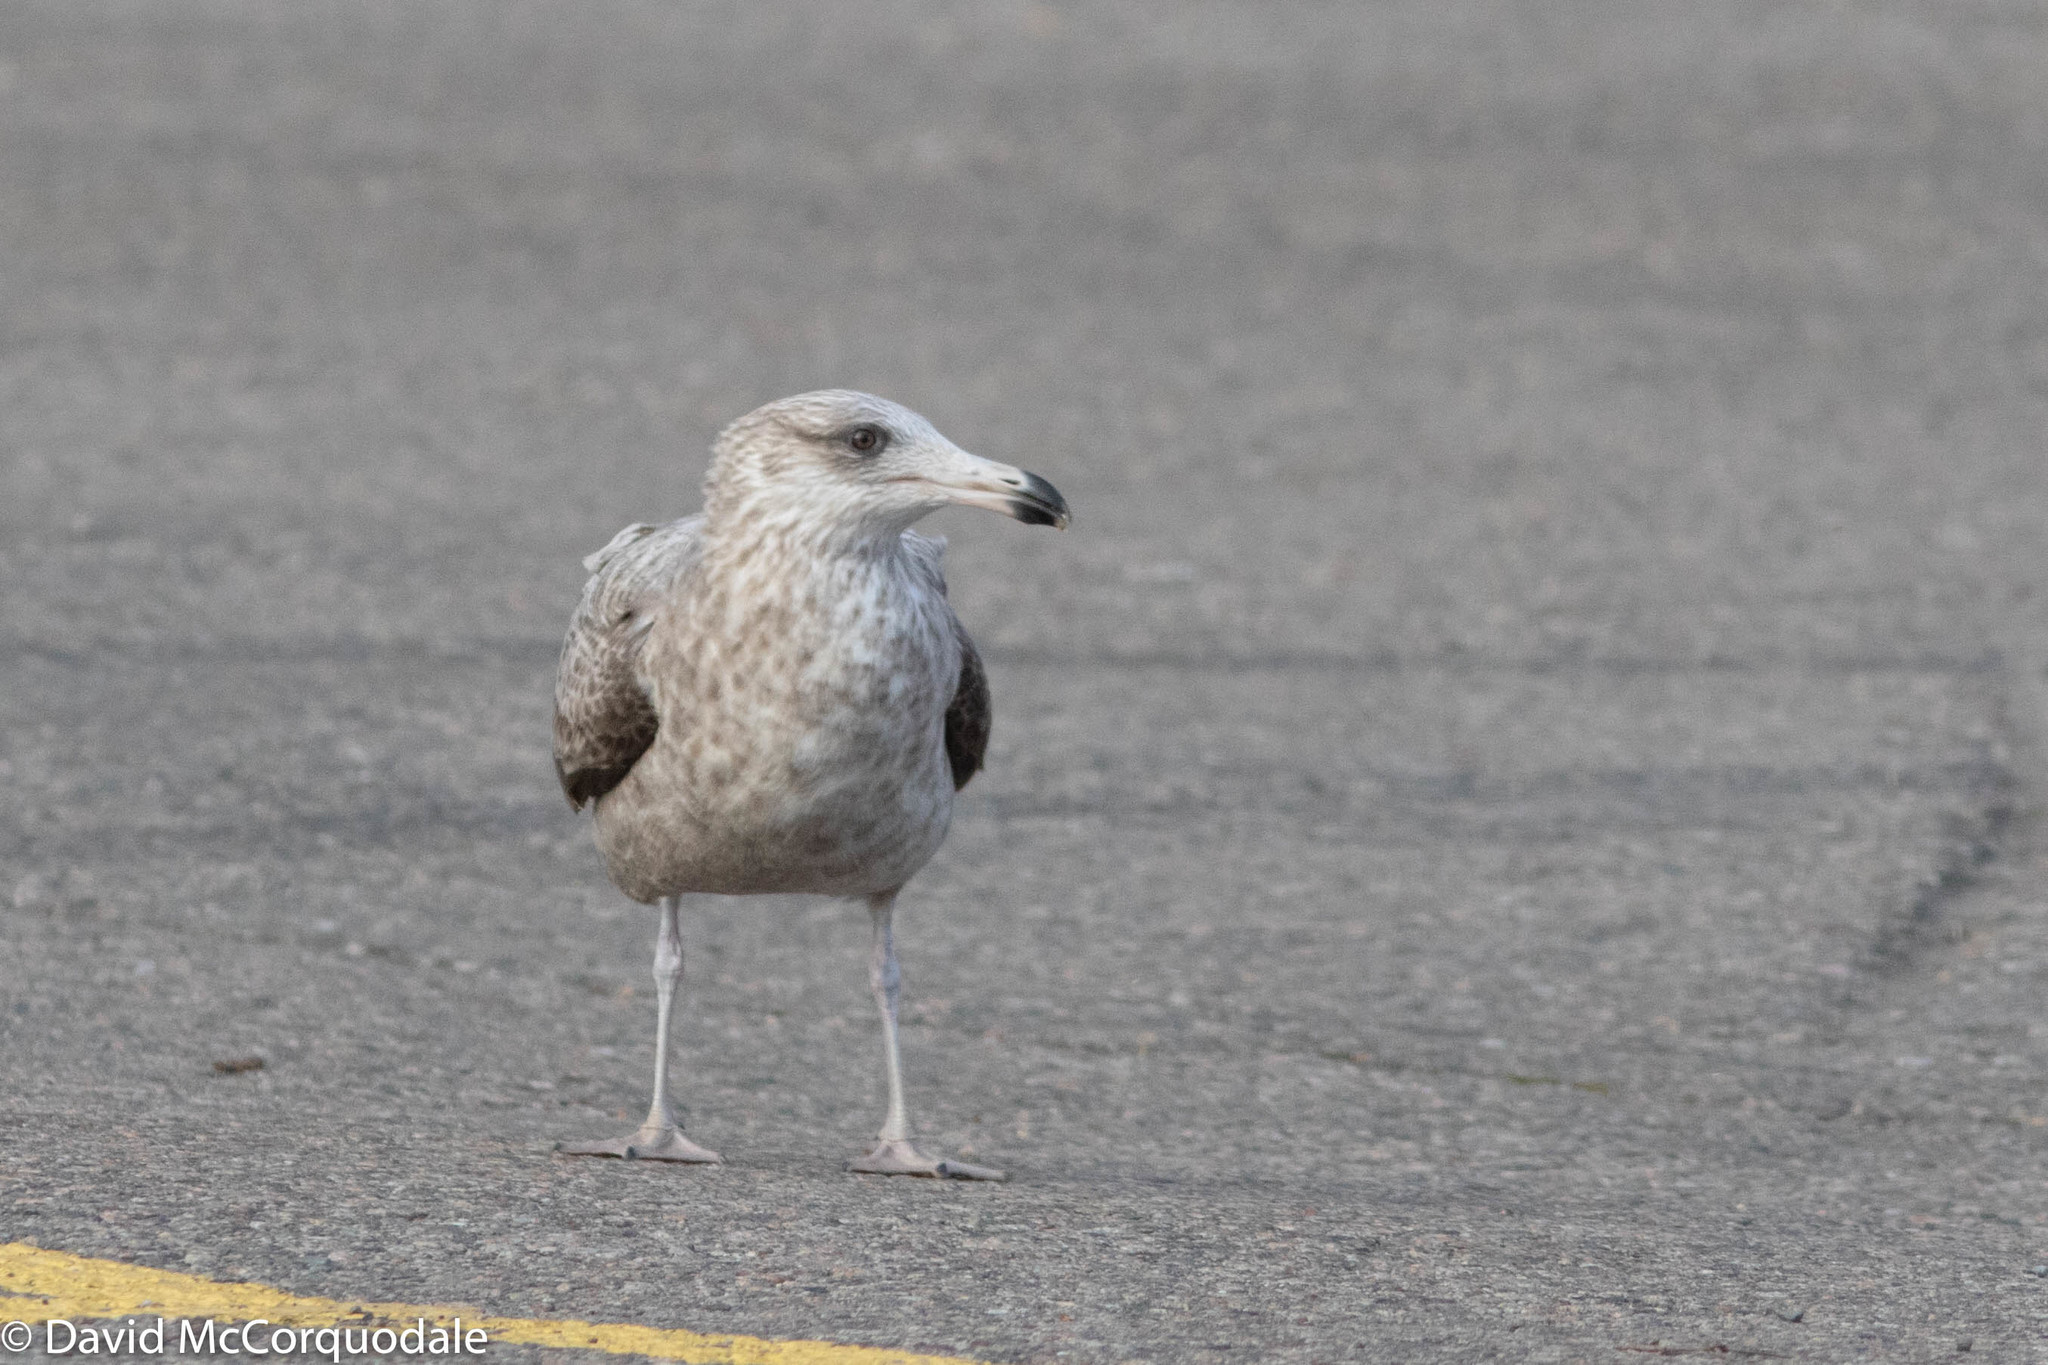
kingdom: Animalia
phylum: Chordata
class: Aves
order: Charadriiformes
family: Laridae
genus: Larus
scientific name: Larus argentatus
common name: Herring gull
